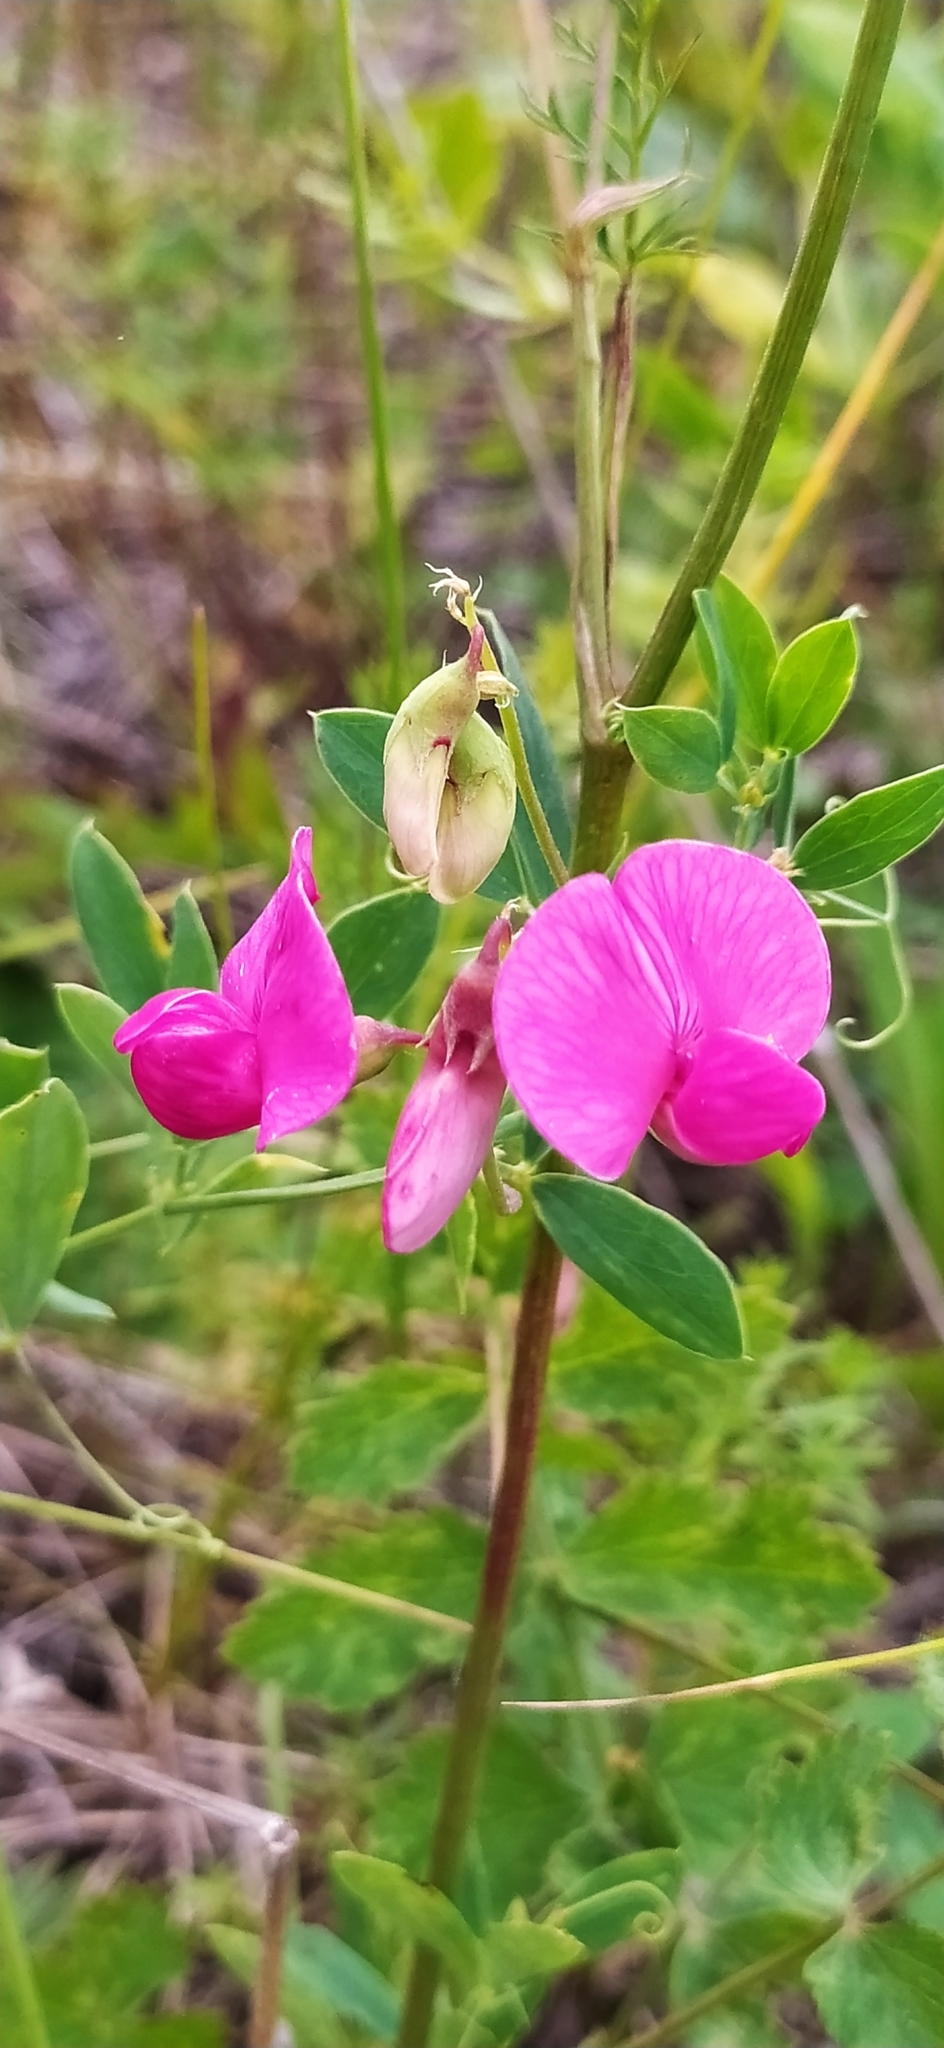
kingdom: Plantae
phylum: Tracheophyta
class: Magnoliopsida
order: Fabales
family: Fabaceae
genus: Lathyrus
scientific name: Lathyrus tuberosus
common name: Tuberous pea
